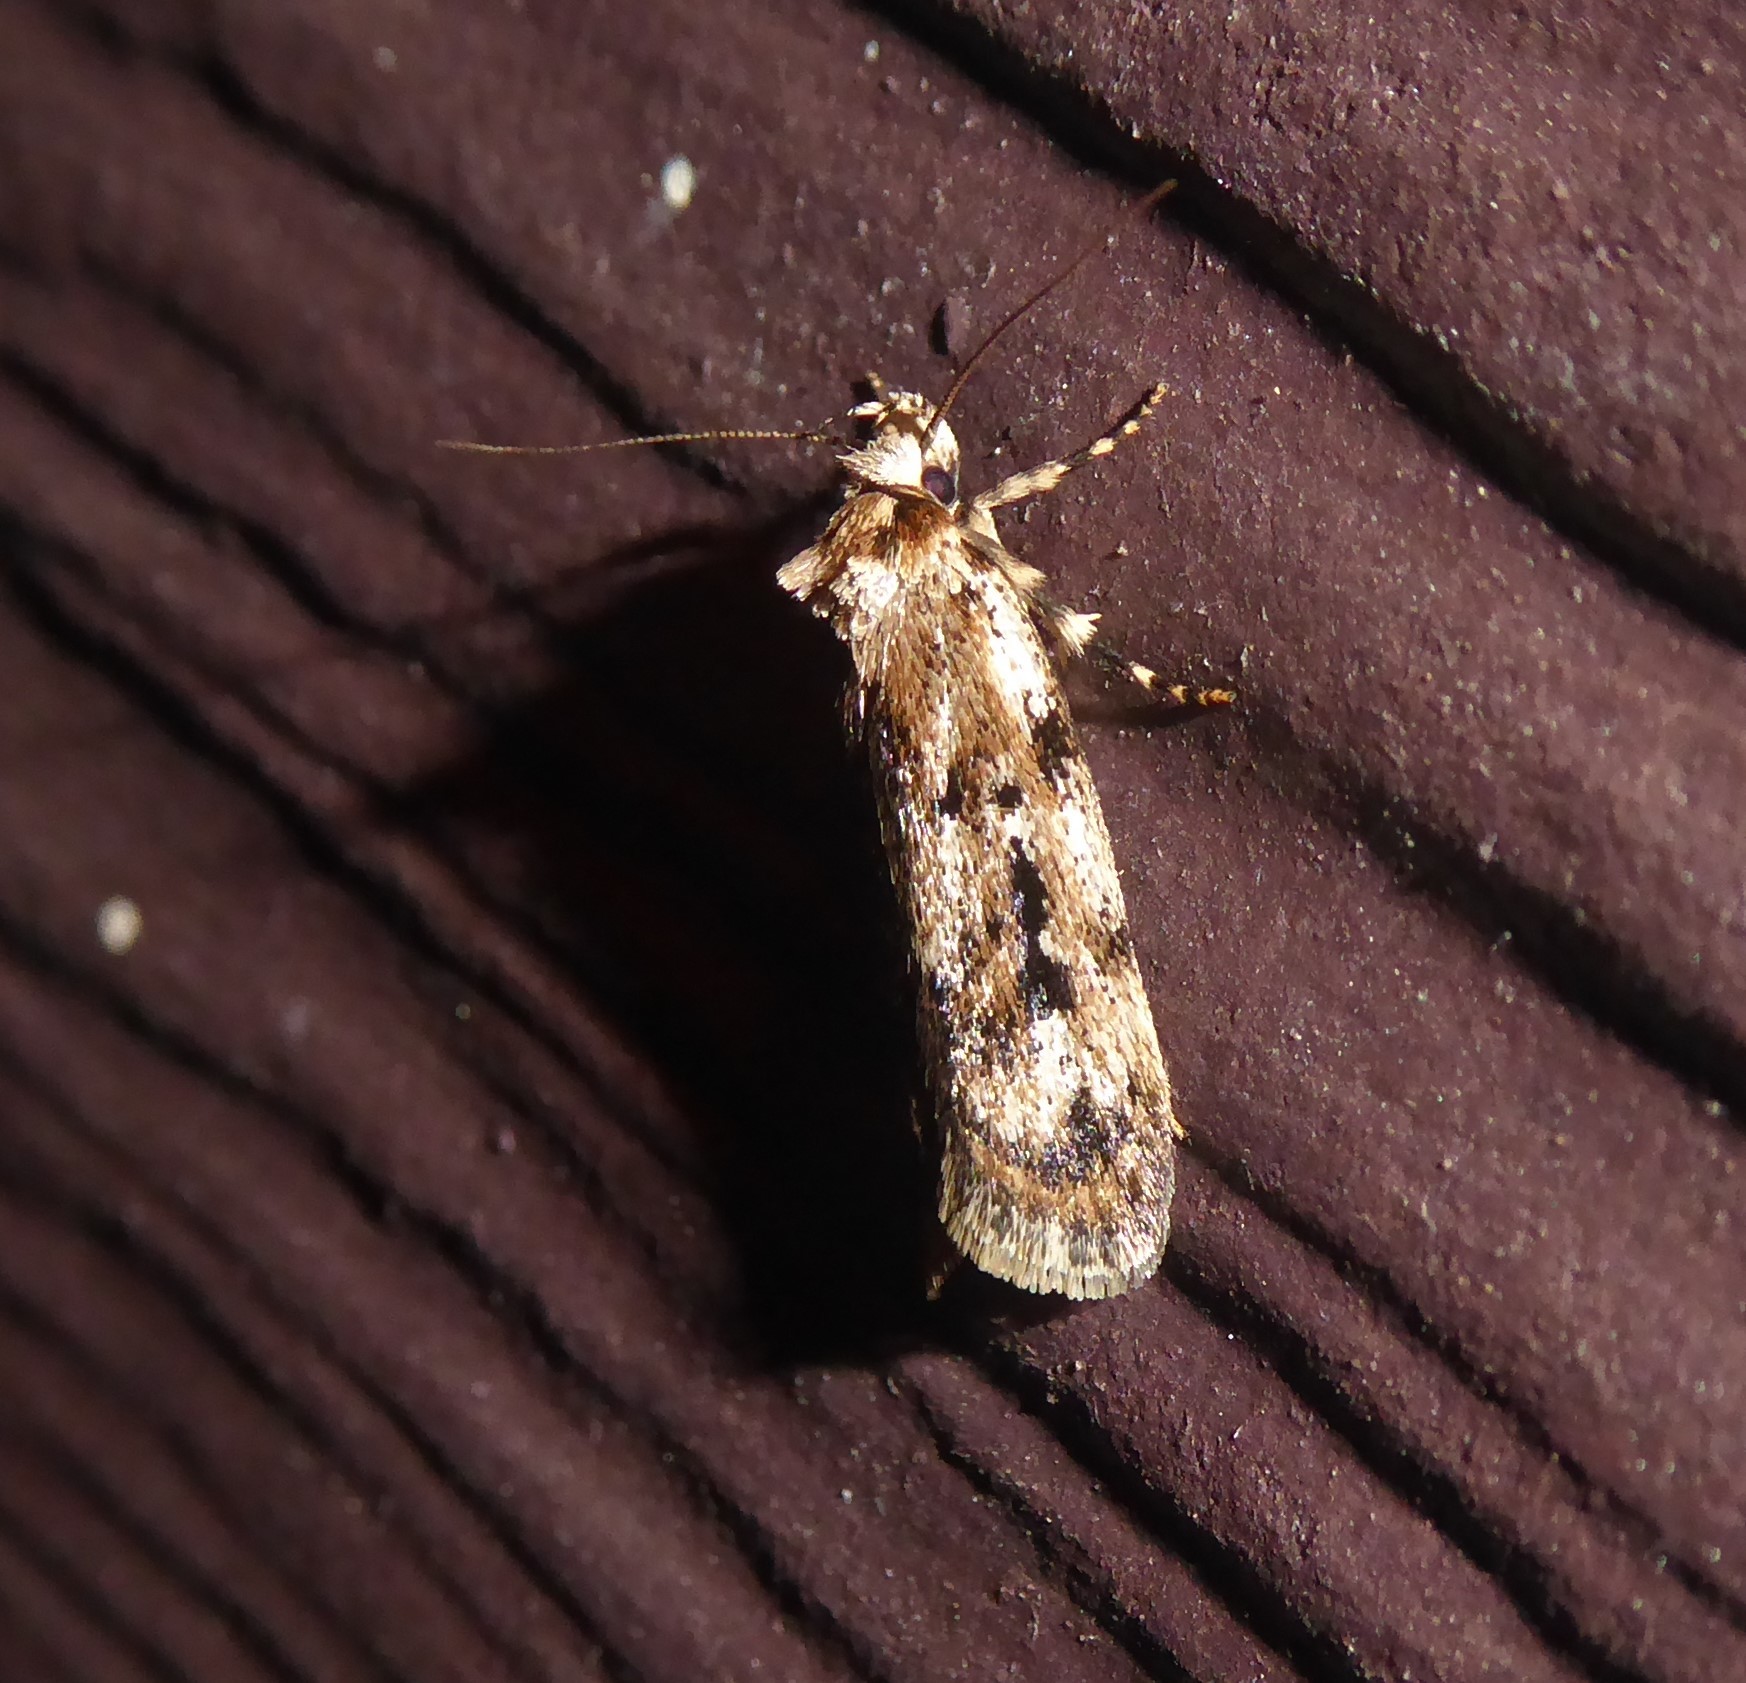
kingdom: Animalia
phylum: Arthropoda
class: Insecta
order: Lepidoptera
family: Oecophoridae
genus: Barea
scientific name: Barea exarcha
